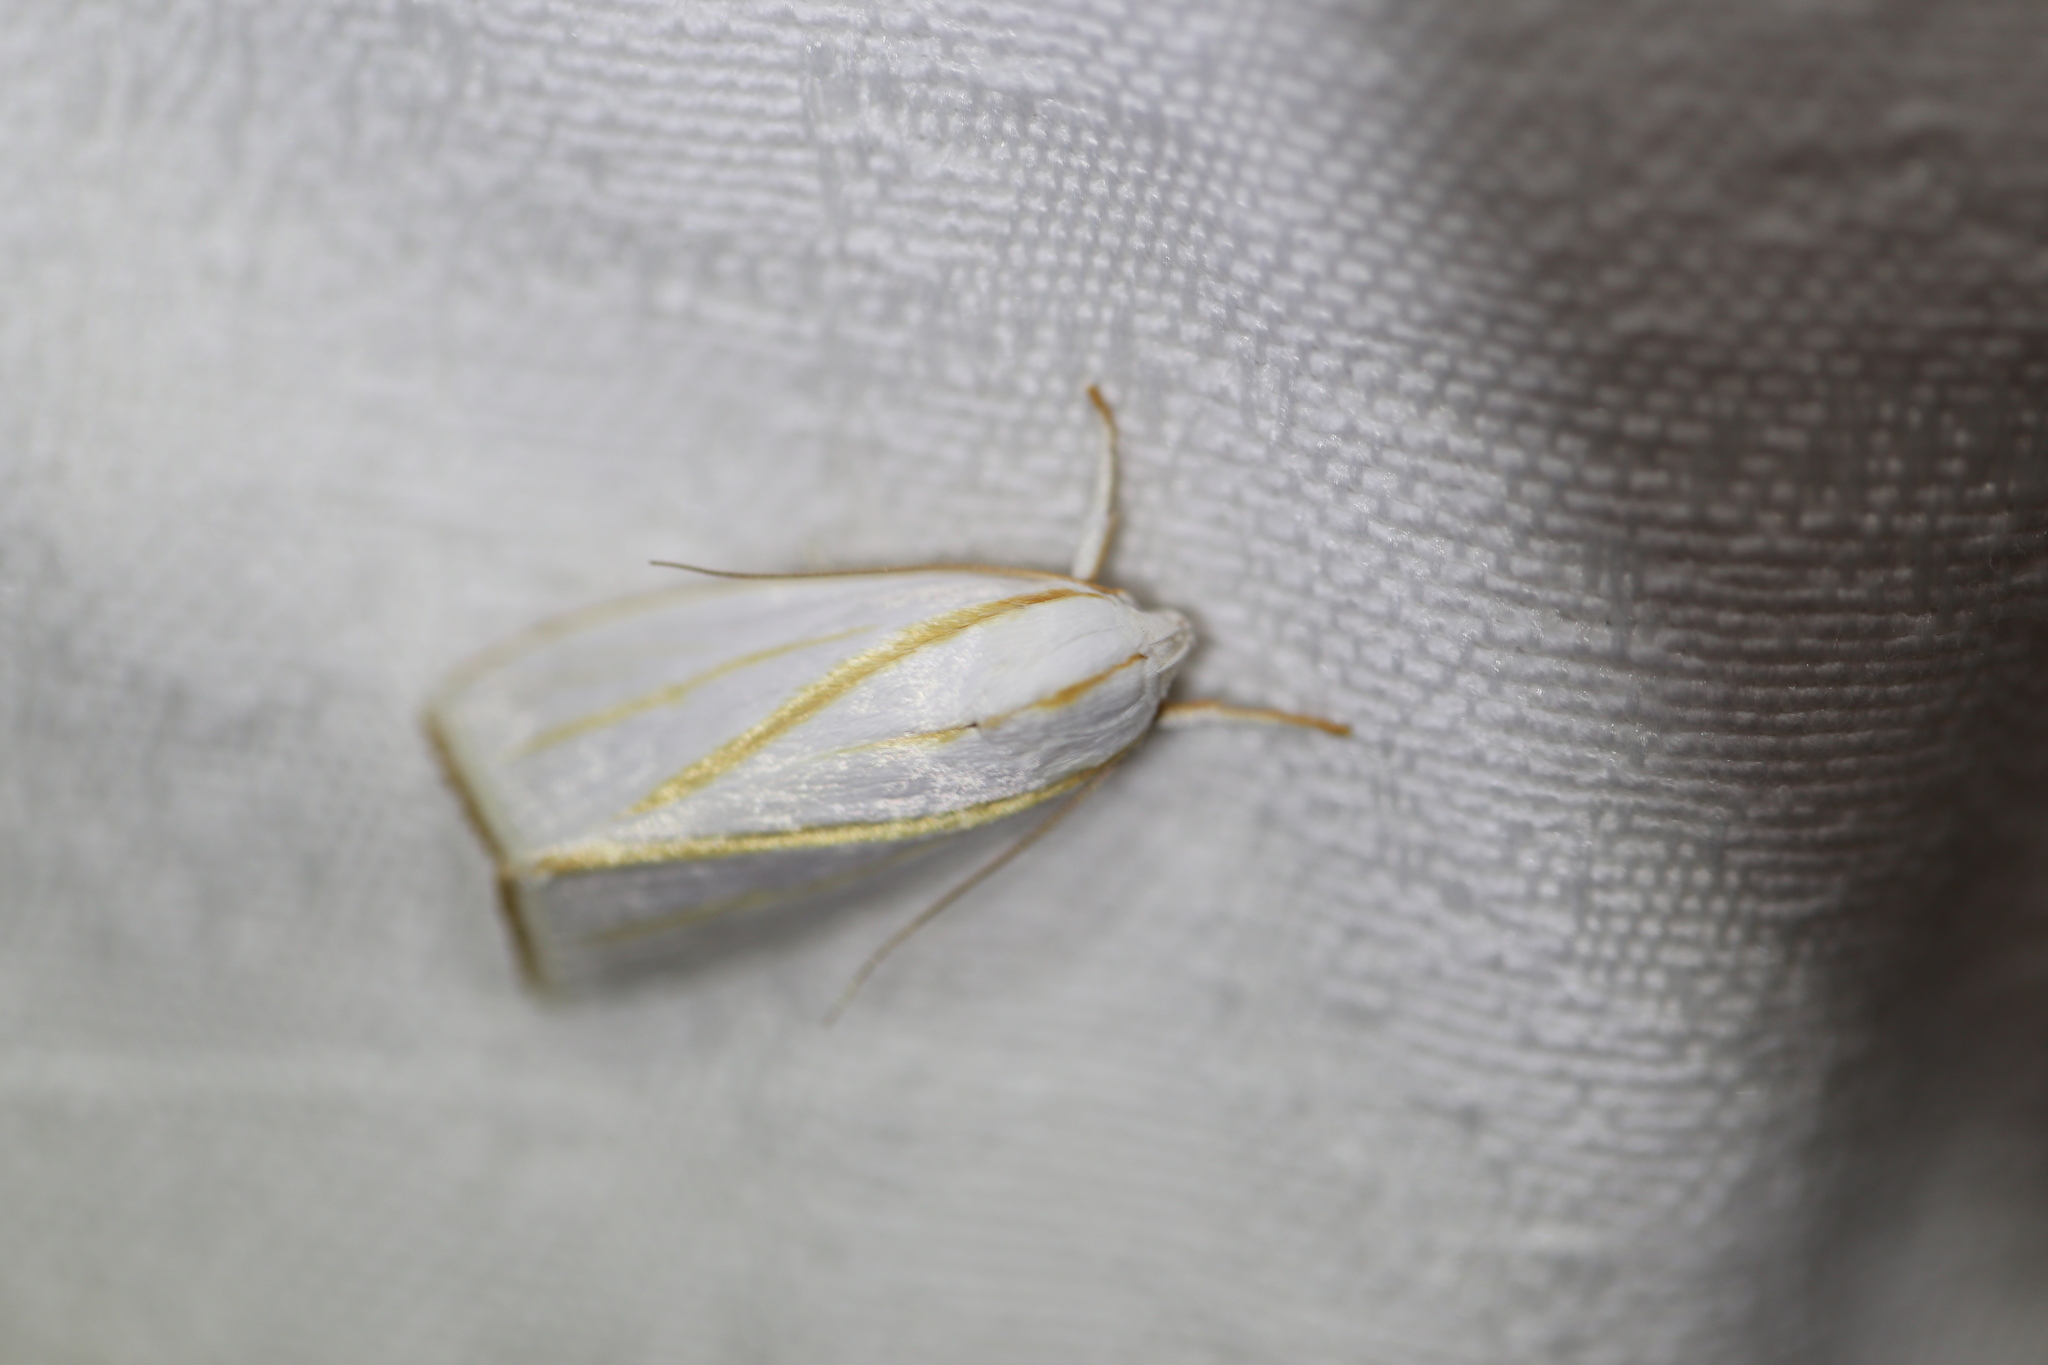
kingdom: Animalia
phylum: Arthropoda
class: Insecta
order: Lepidoptera
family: Xyloryctidae
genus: Cryptophasa
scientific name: Cryptophasa flavolineata
